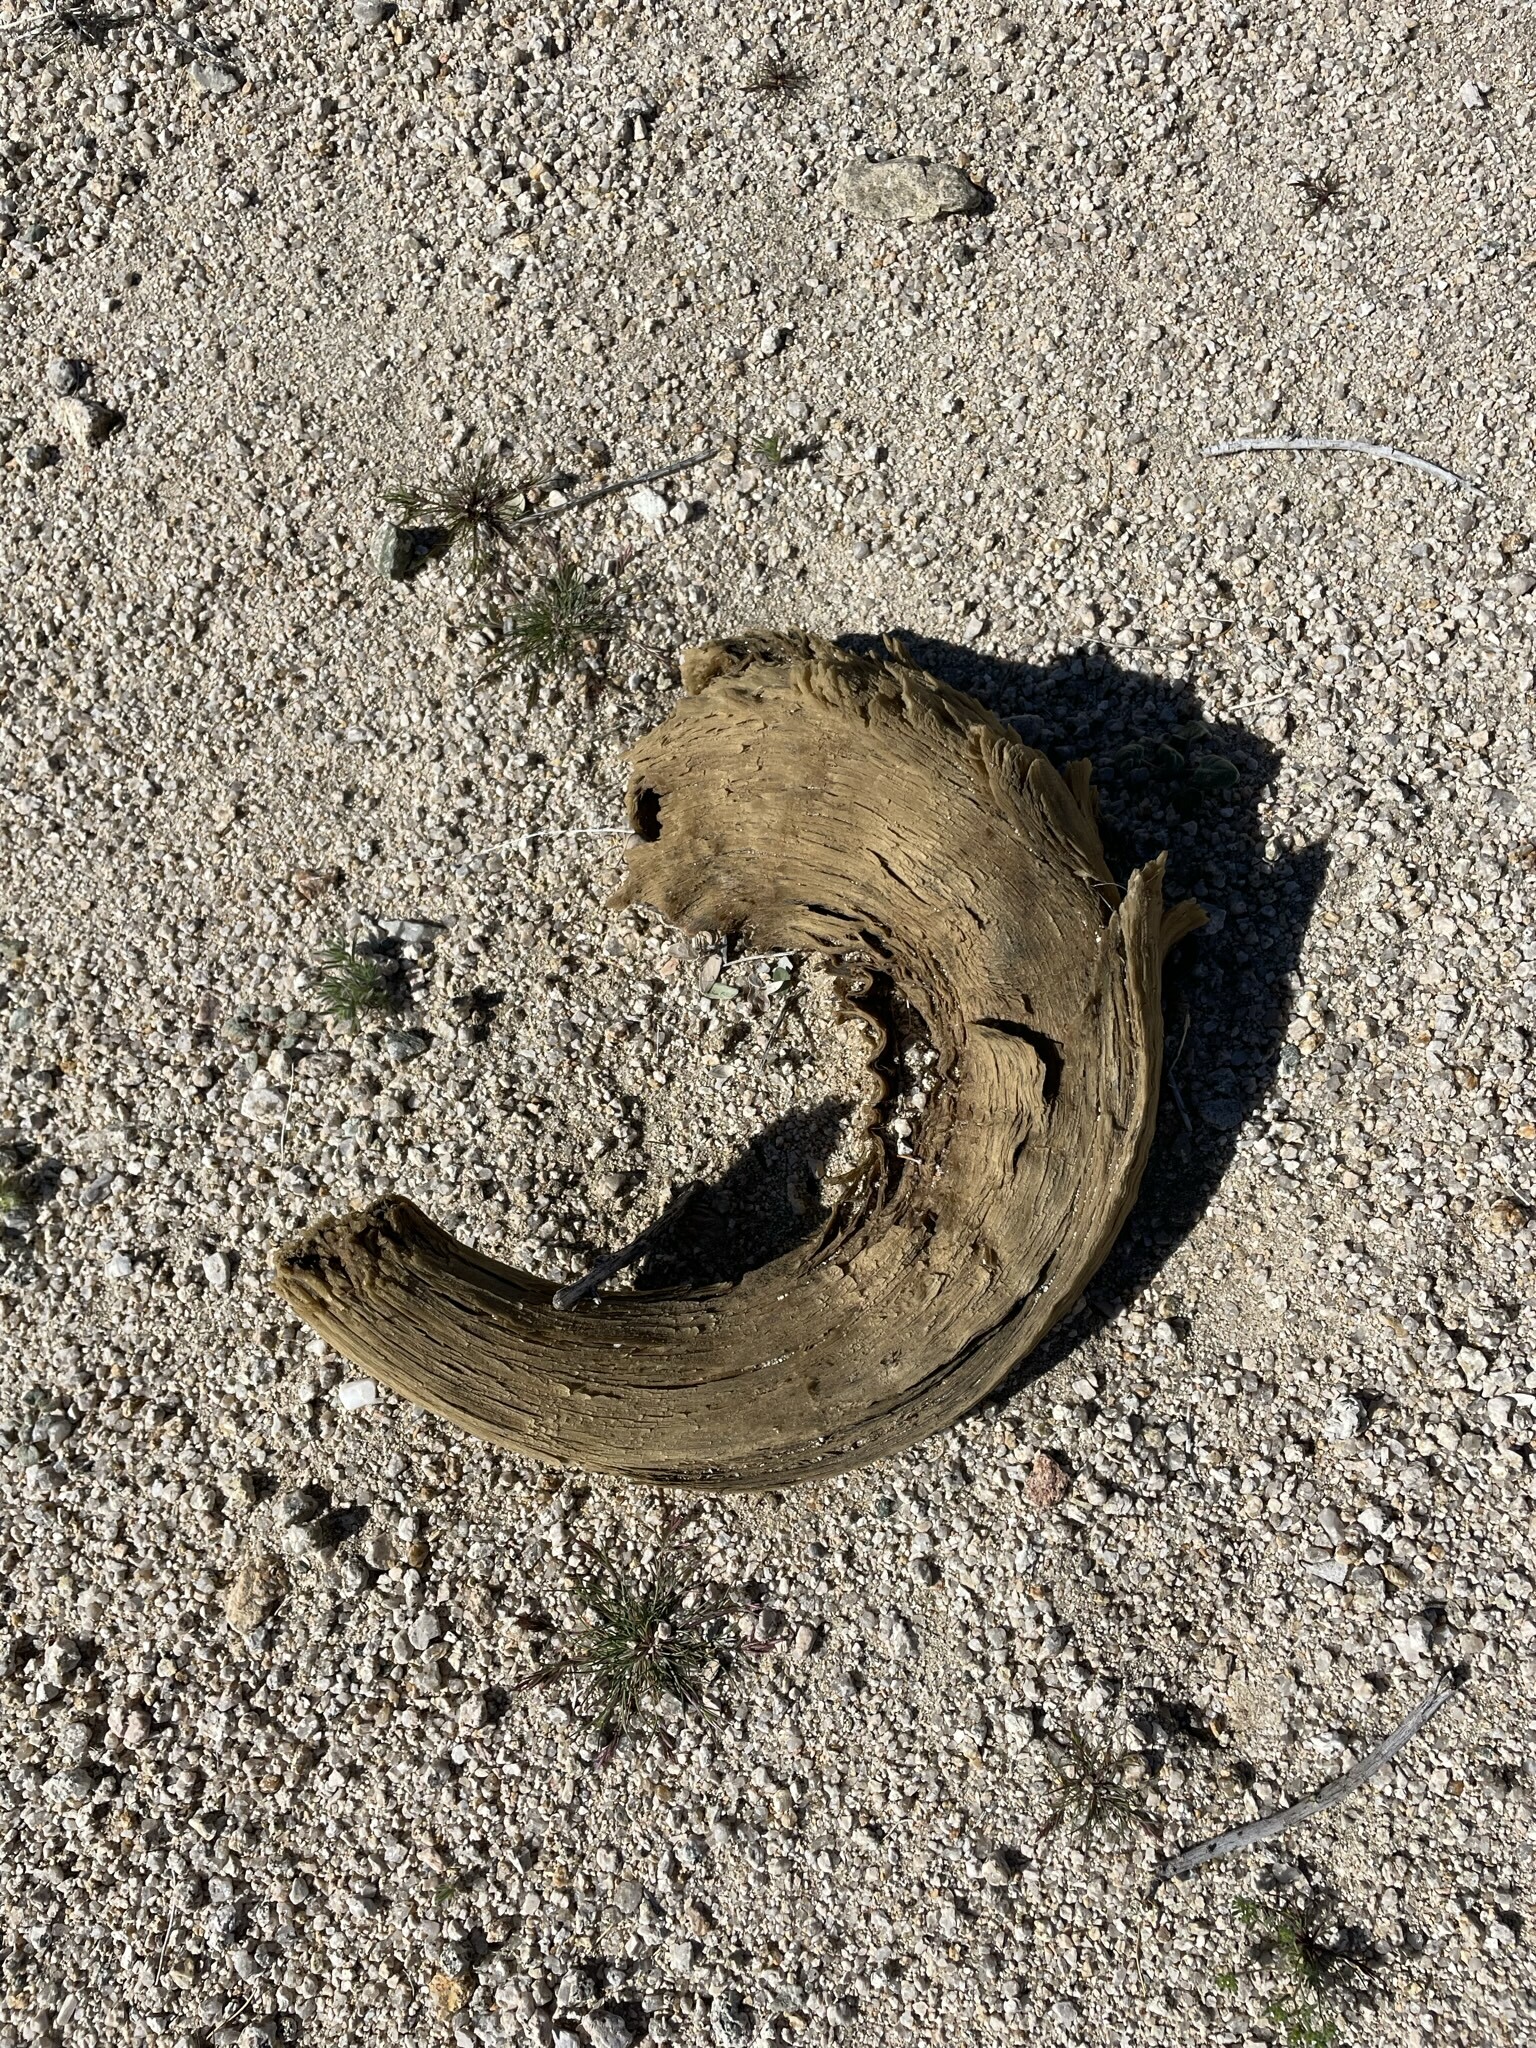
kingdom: Animalia
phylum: Chordata
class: Mammalia
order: Artiodactyla
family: Bovidae
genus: Ovis
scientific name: Ovis canadensis
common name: Bighorn sheep
